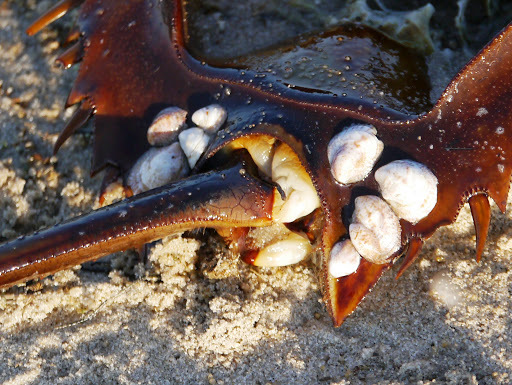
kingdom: Animalia
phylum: Mollusca
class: Gastropoda
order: Littorinimorpha
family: Calyptraeidae
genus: Crepidula
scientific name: Crepidula fornicata
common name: Slipper limpet
